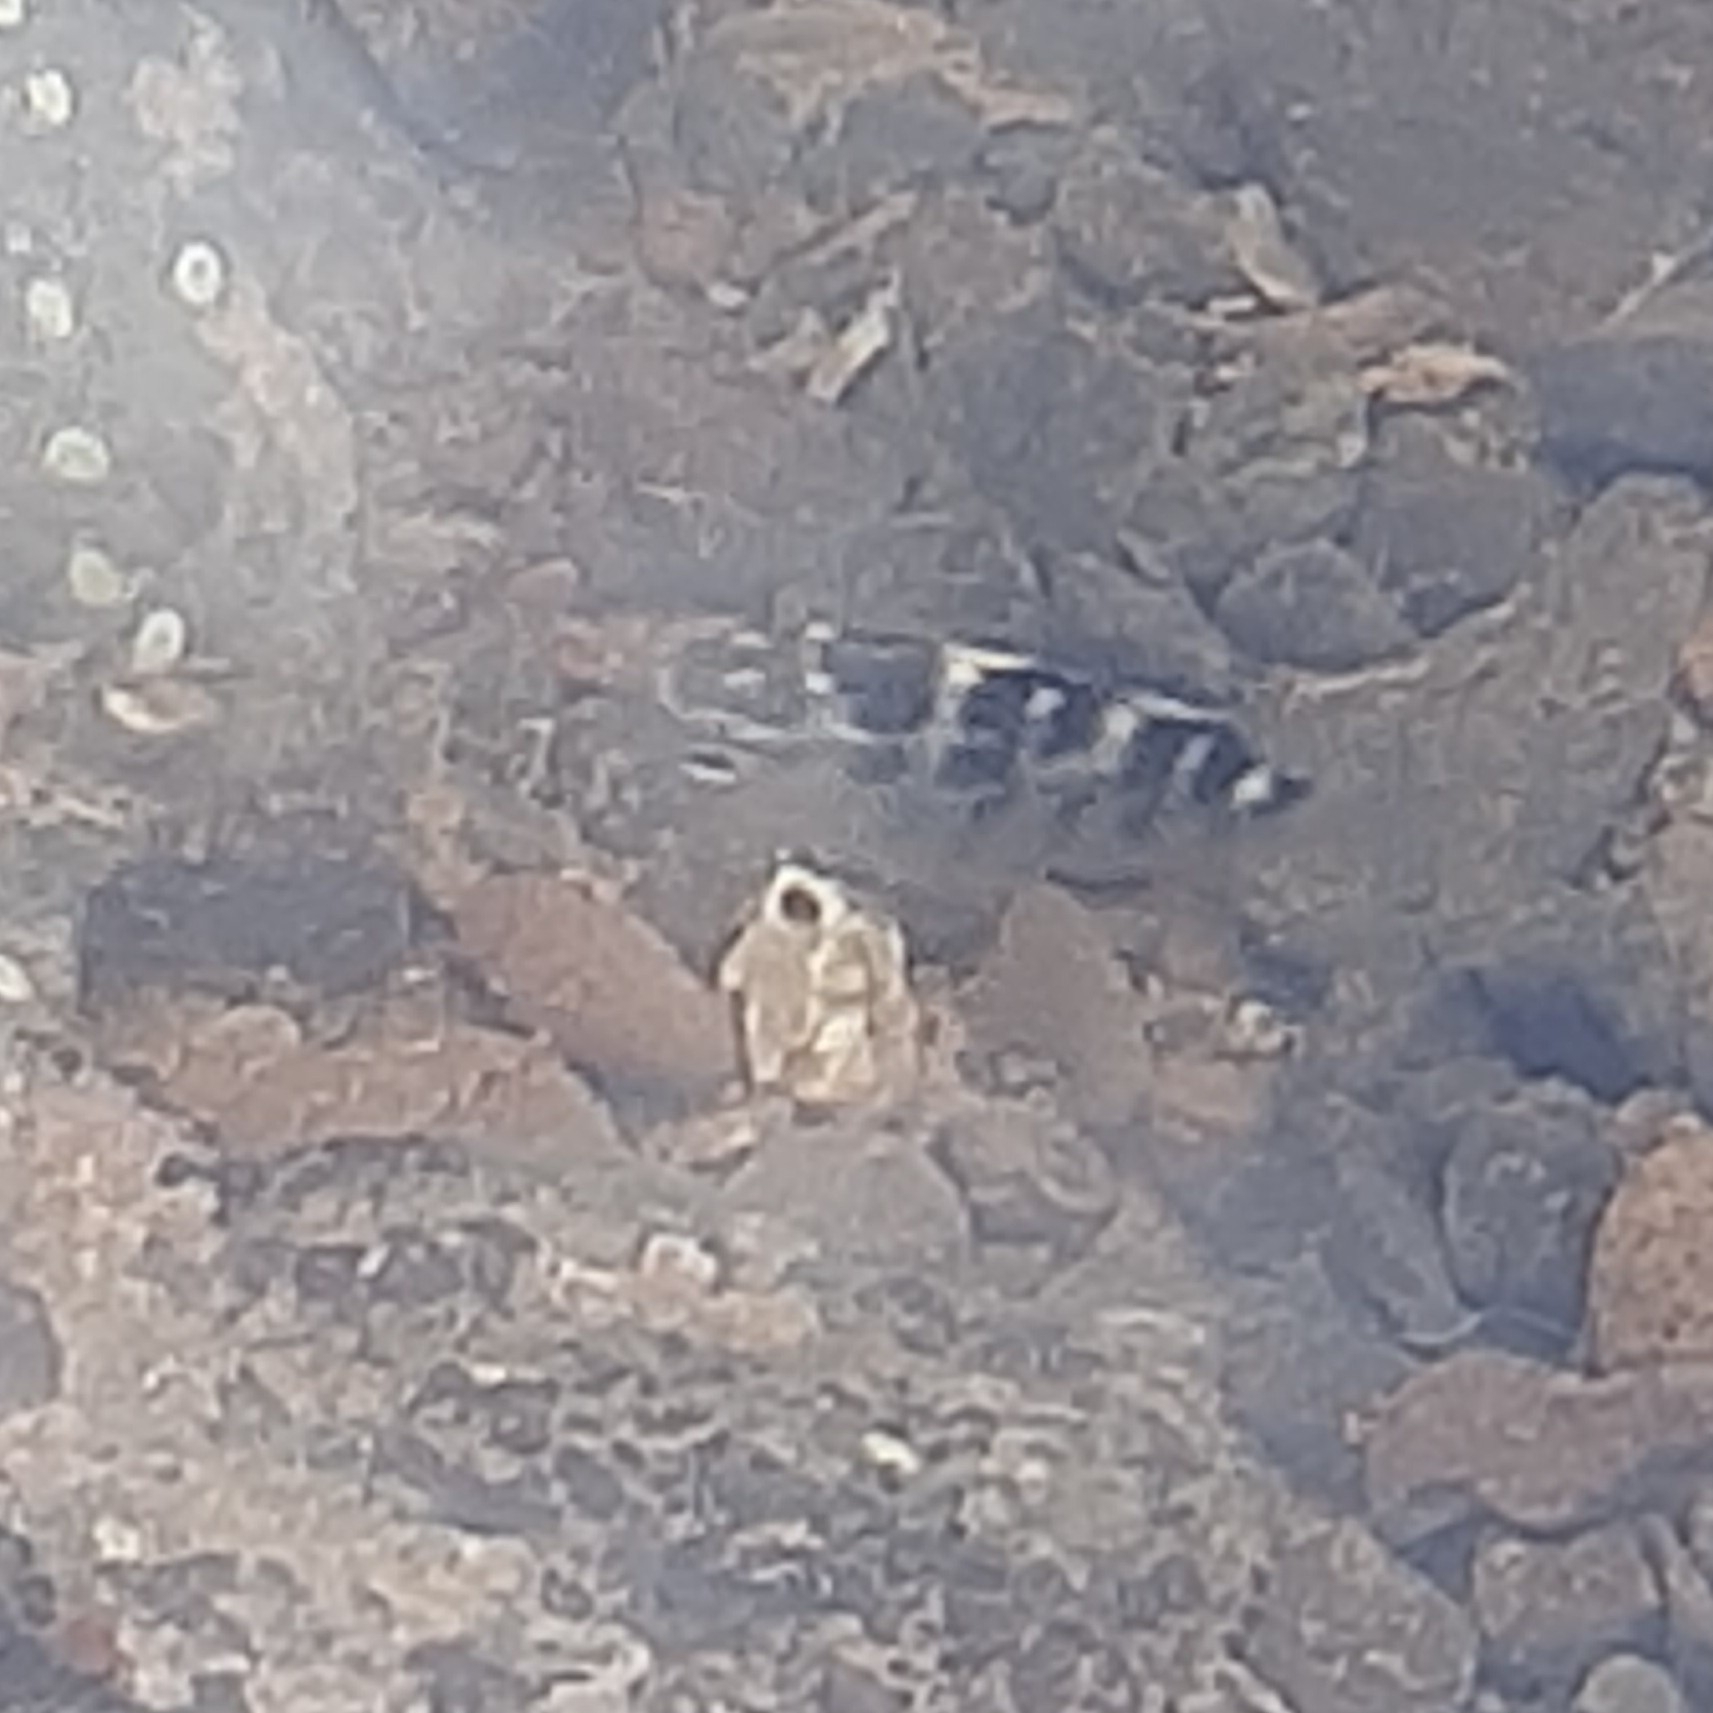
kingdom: Animalia
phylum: Chordata
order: Perciformes
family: Pomacentridae
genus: Abudefduf
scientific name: Abudefduf concolor
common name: Dusky seargent
